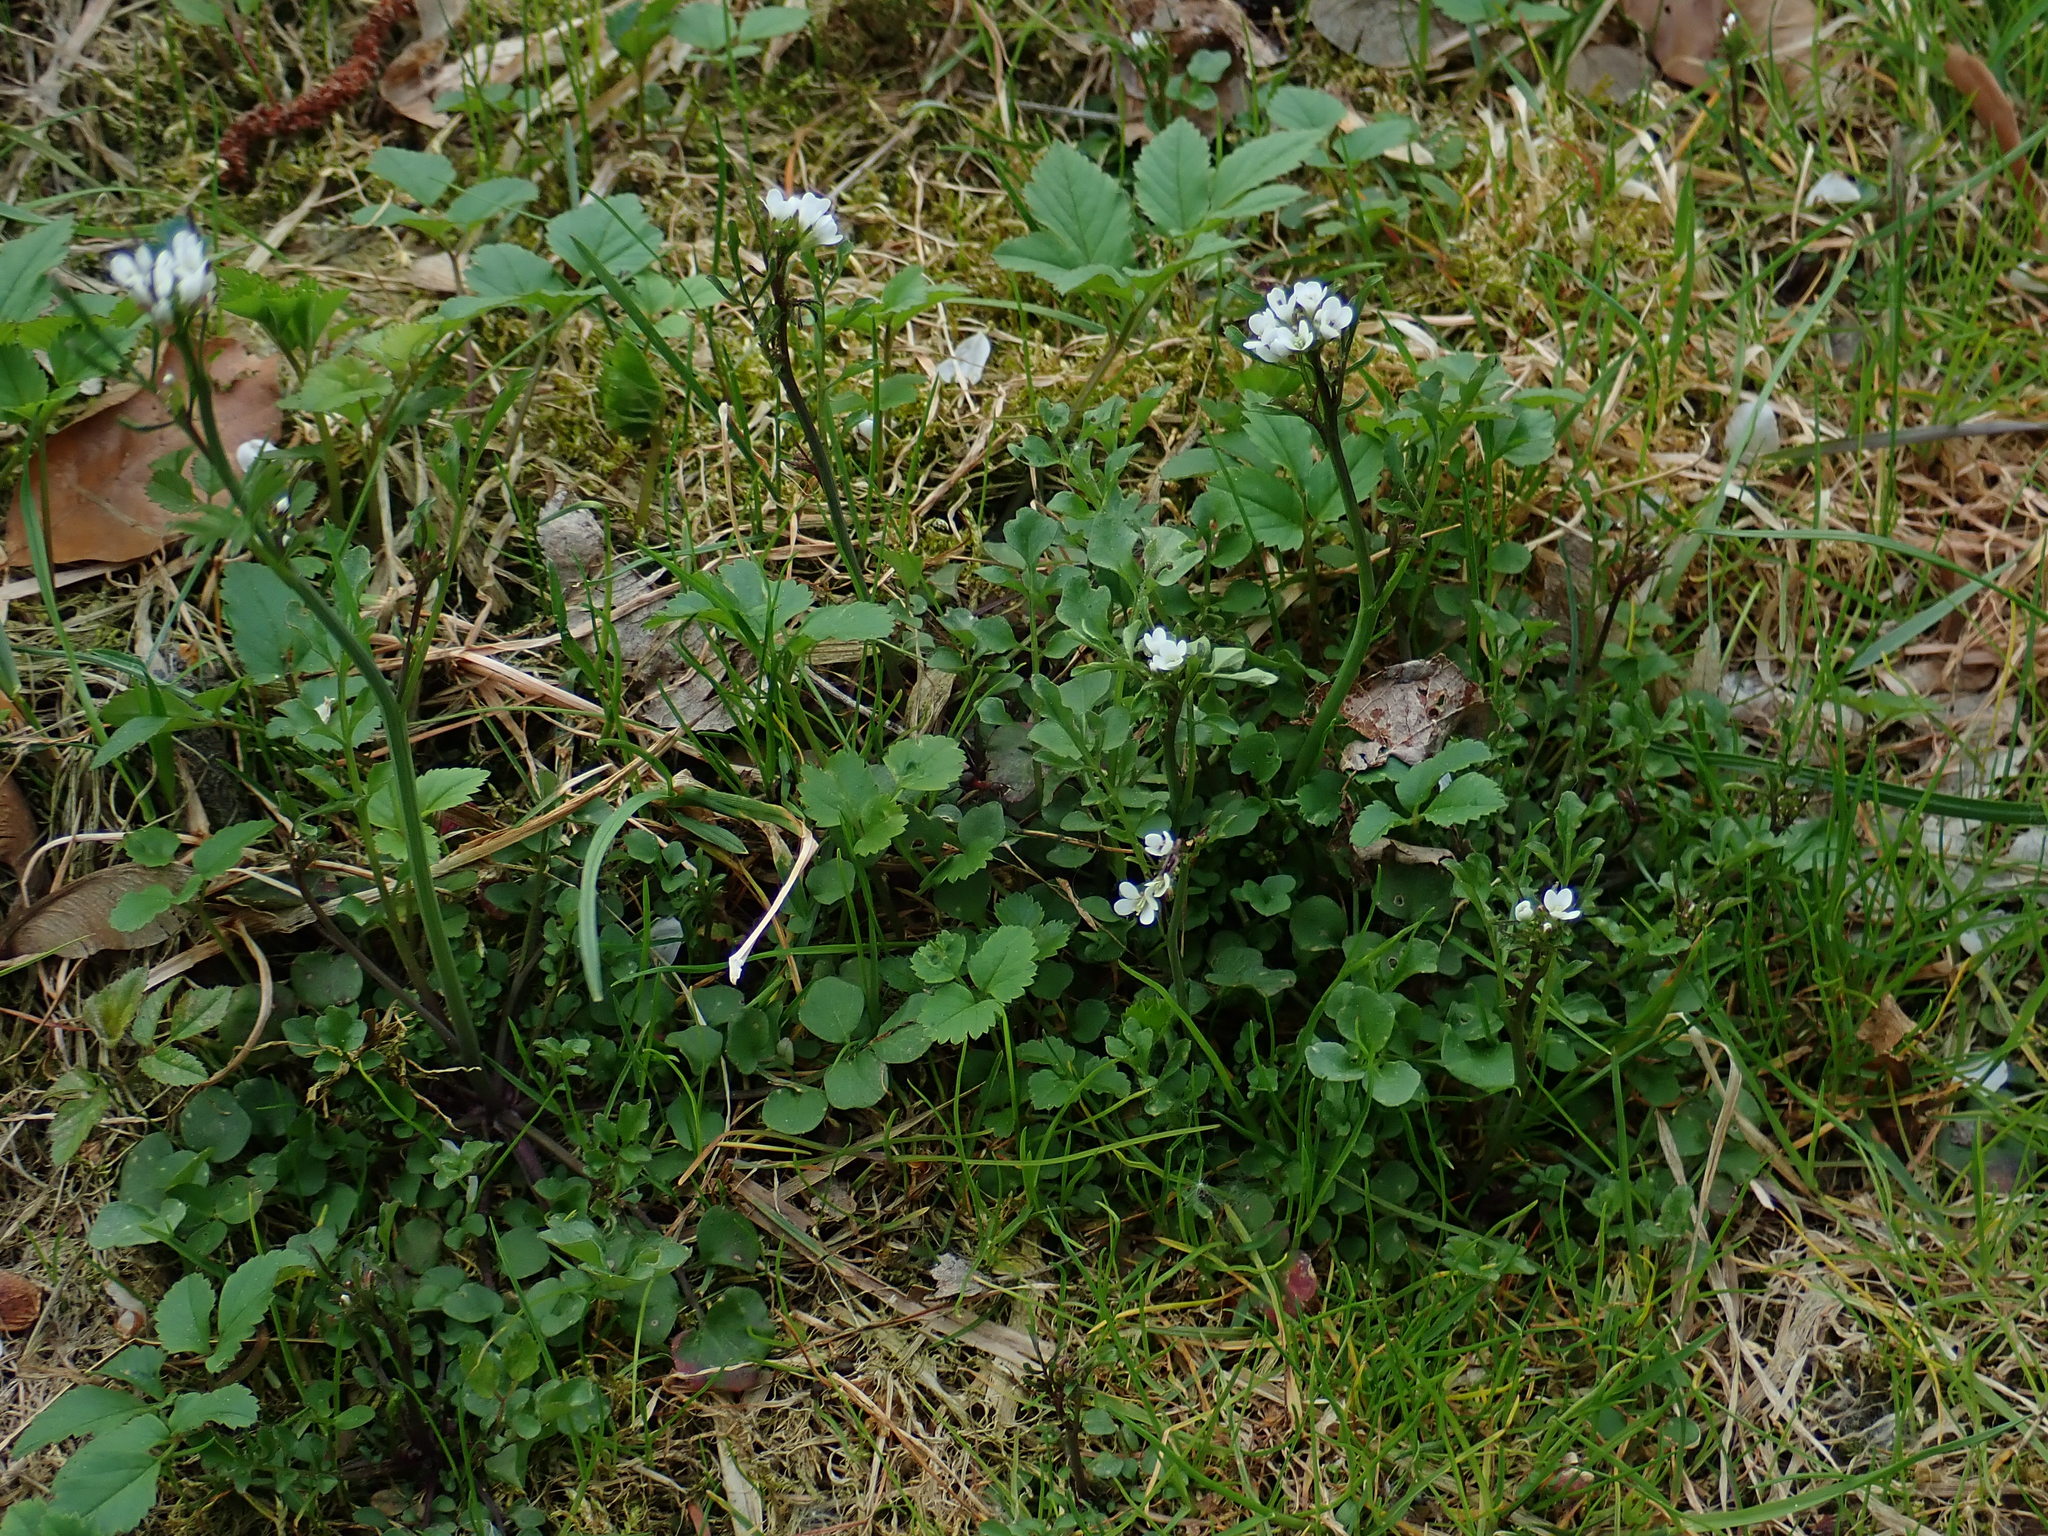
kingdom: Plantae
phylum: Tracheophyta
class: Magnoliopsida
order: Brassicales
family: Brassicaceae
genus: Cardamine
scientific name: Cardamine hirsuta
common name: Hairy bittercress
